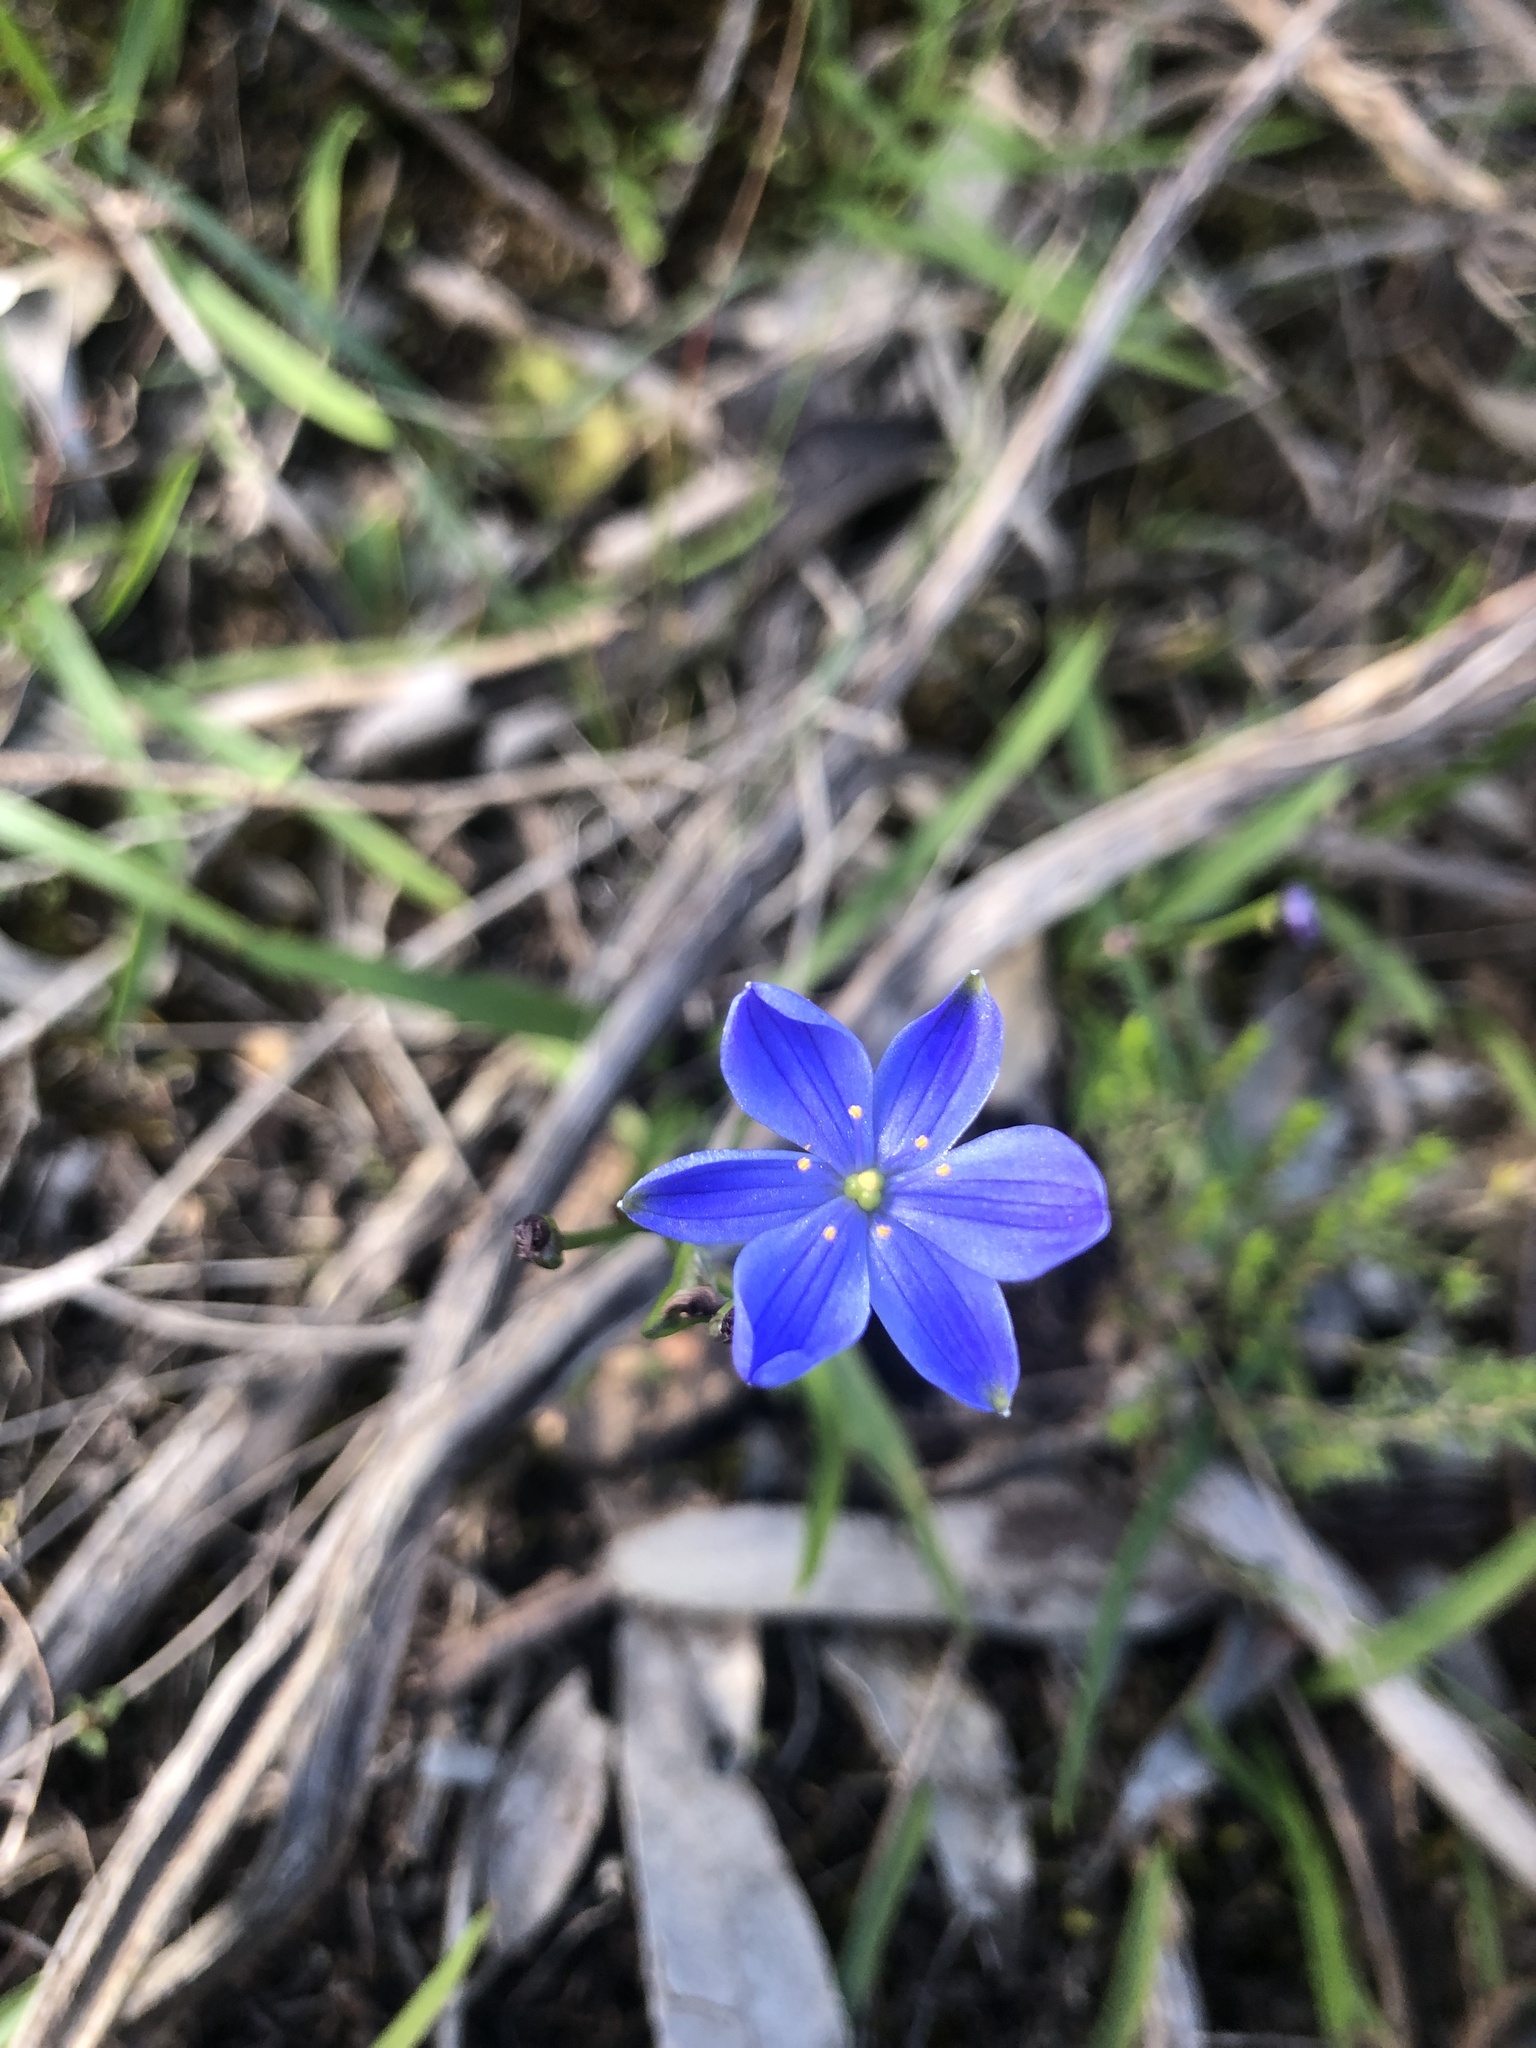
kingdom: Plantae
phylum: Tracheophyta
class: Liliopsida
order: Asparagales
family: Asphodelaceae
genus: Chamaescilla
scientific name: Chamaescilla corymbosa
